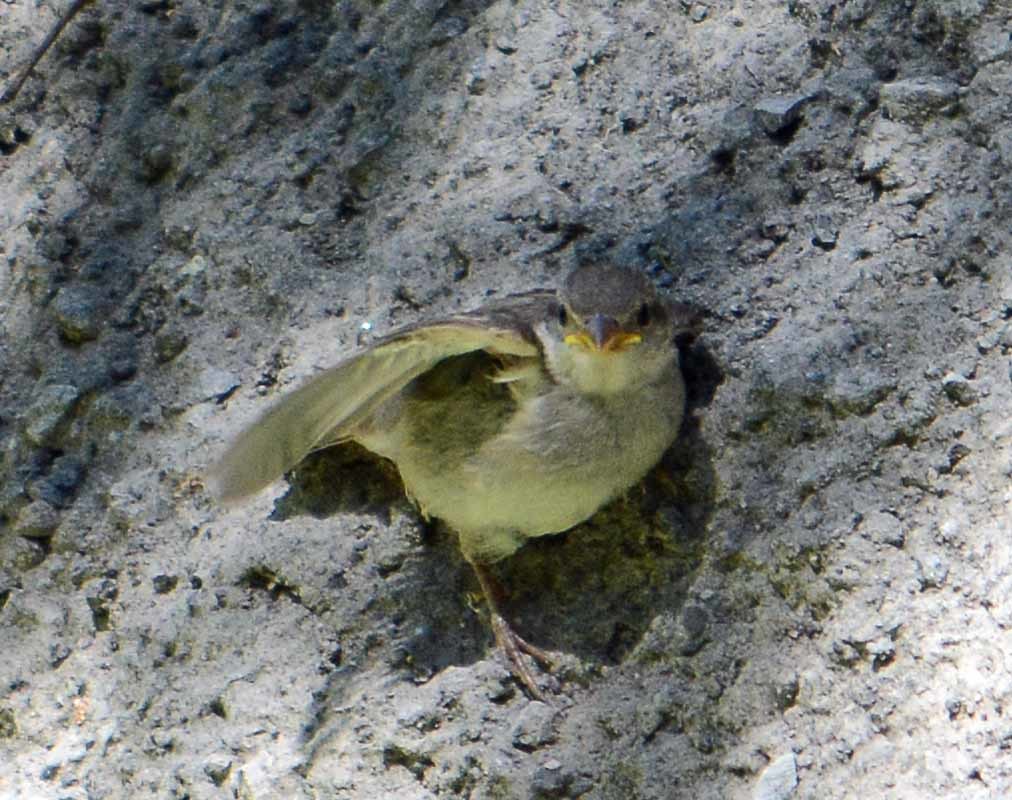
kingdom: Animalia
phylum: Chordata
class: Aves
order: Passeriformes
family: Passeridae
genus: Passer
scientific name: Passer domesticus
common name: House sparrow
